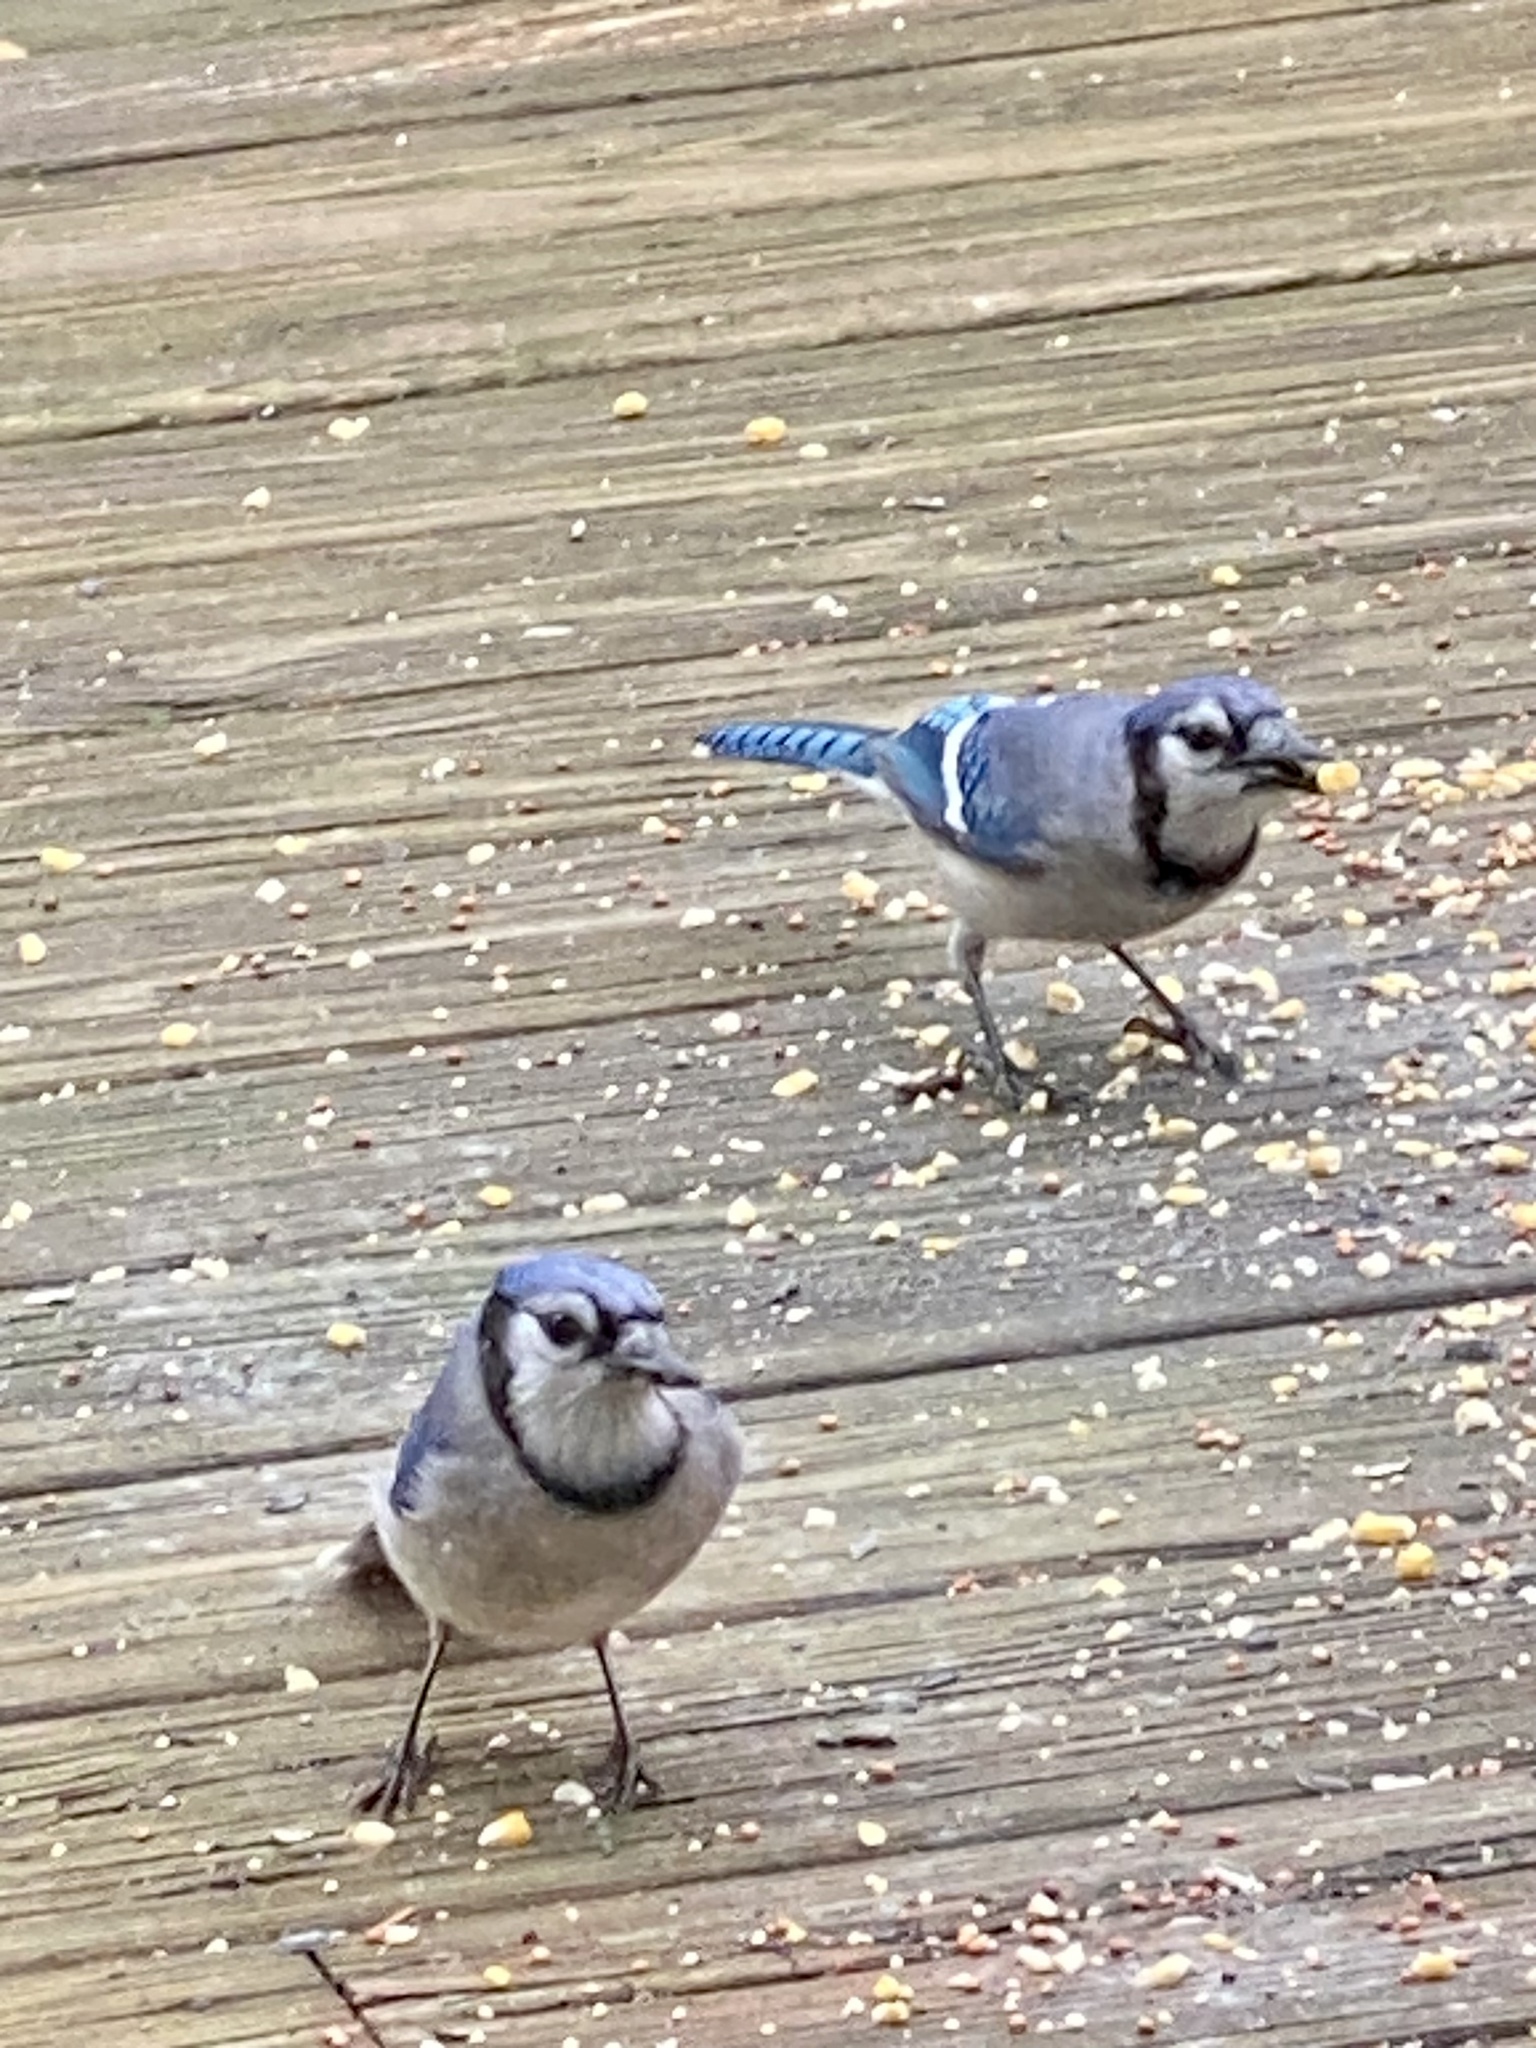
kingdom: Animalia
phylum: Chordata
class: Aves
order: Passeriformes
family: Corvidae
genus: Cyanocitta
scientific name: Cyanocitta cristata
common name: Blue jay
